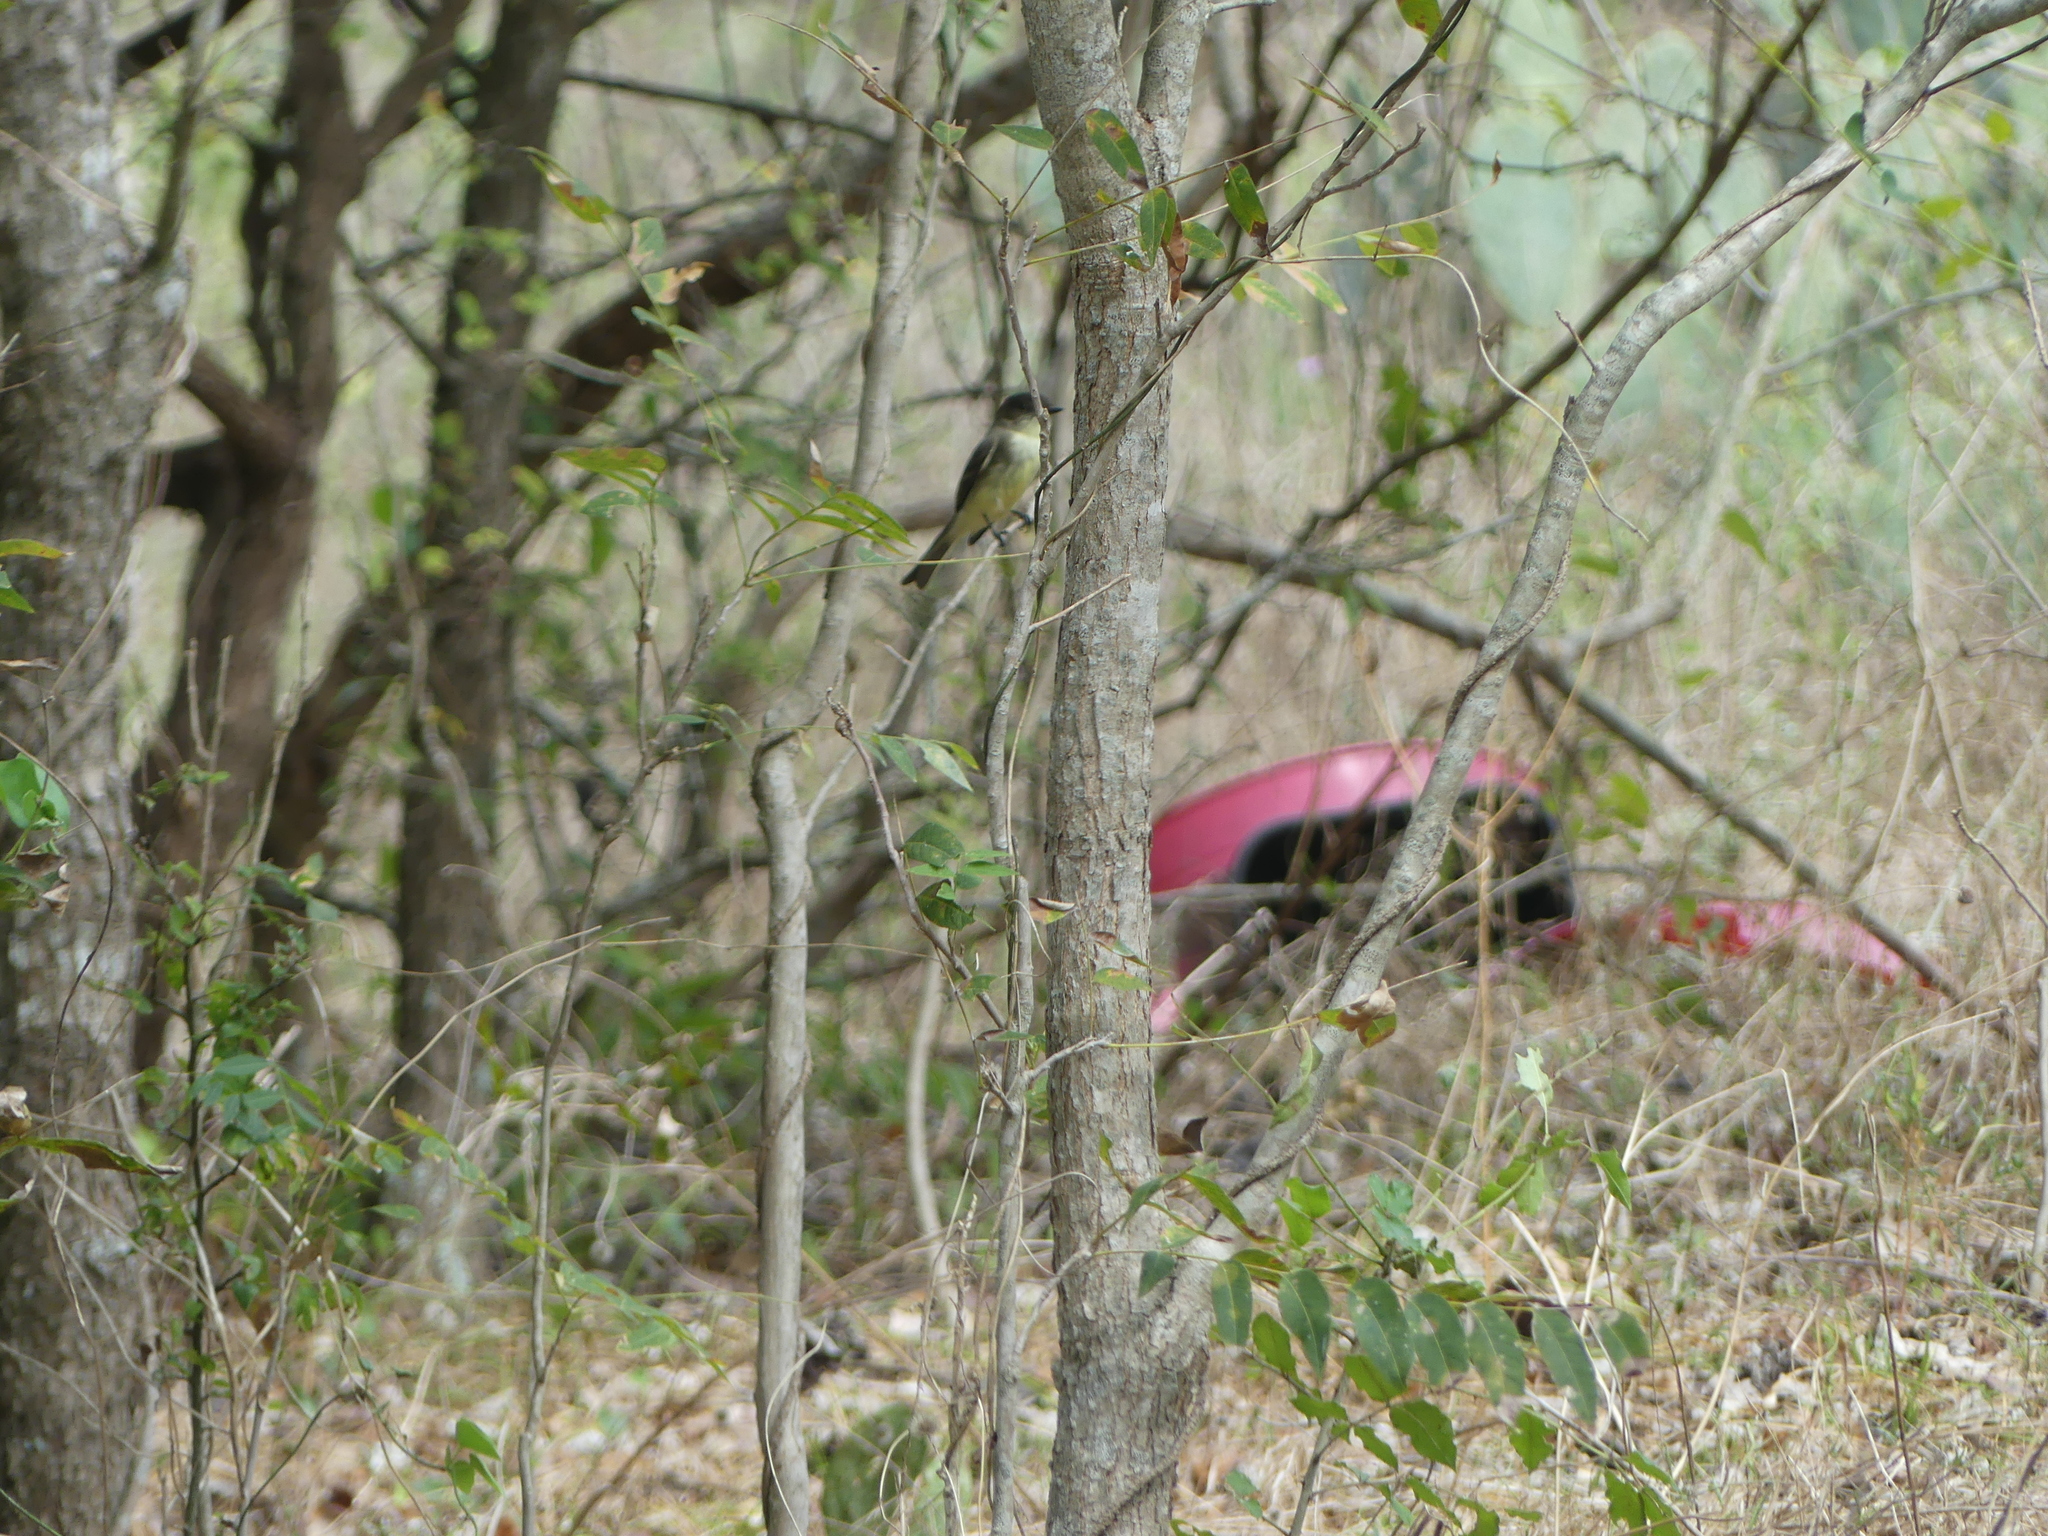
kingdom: Animalia
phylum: Chordata
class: Aves
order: Passeriformes
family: Tyrannidae
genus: Sayornis
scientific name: Sayornis phoebe
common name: Eastern phoebe
